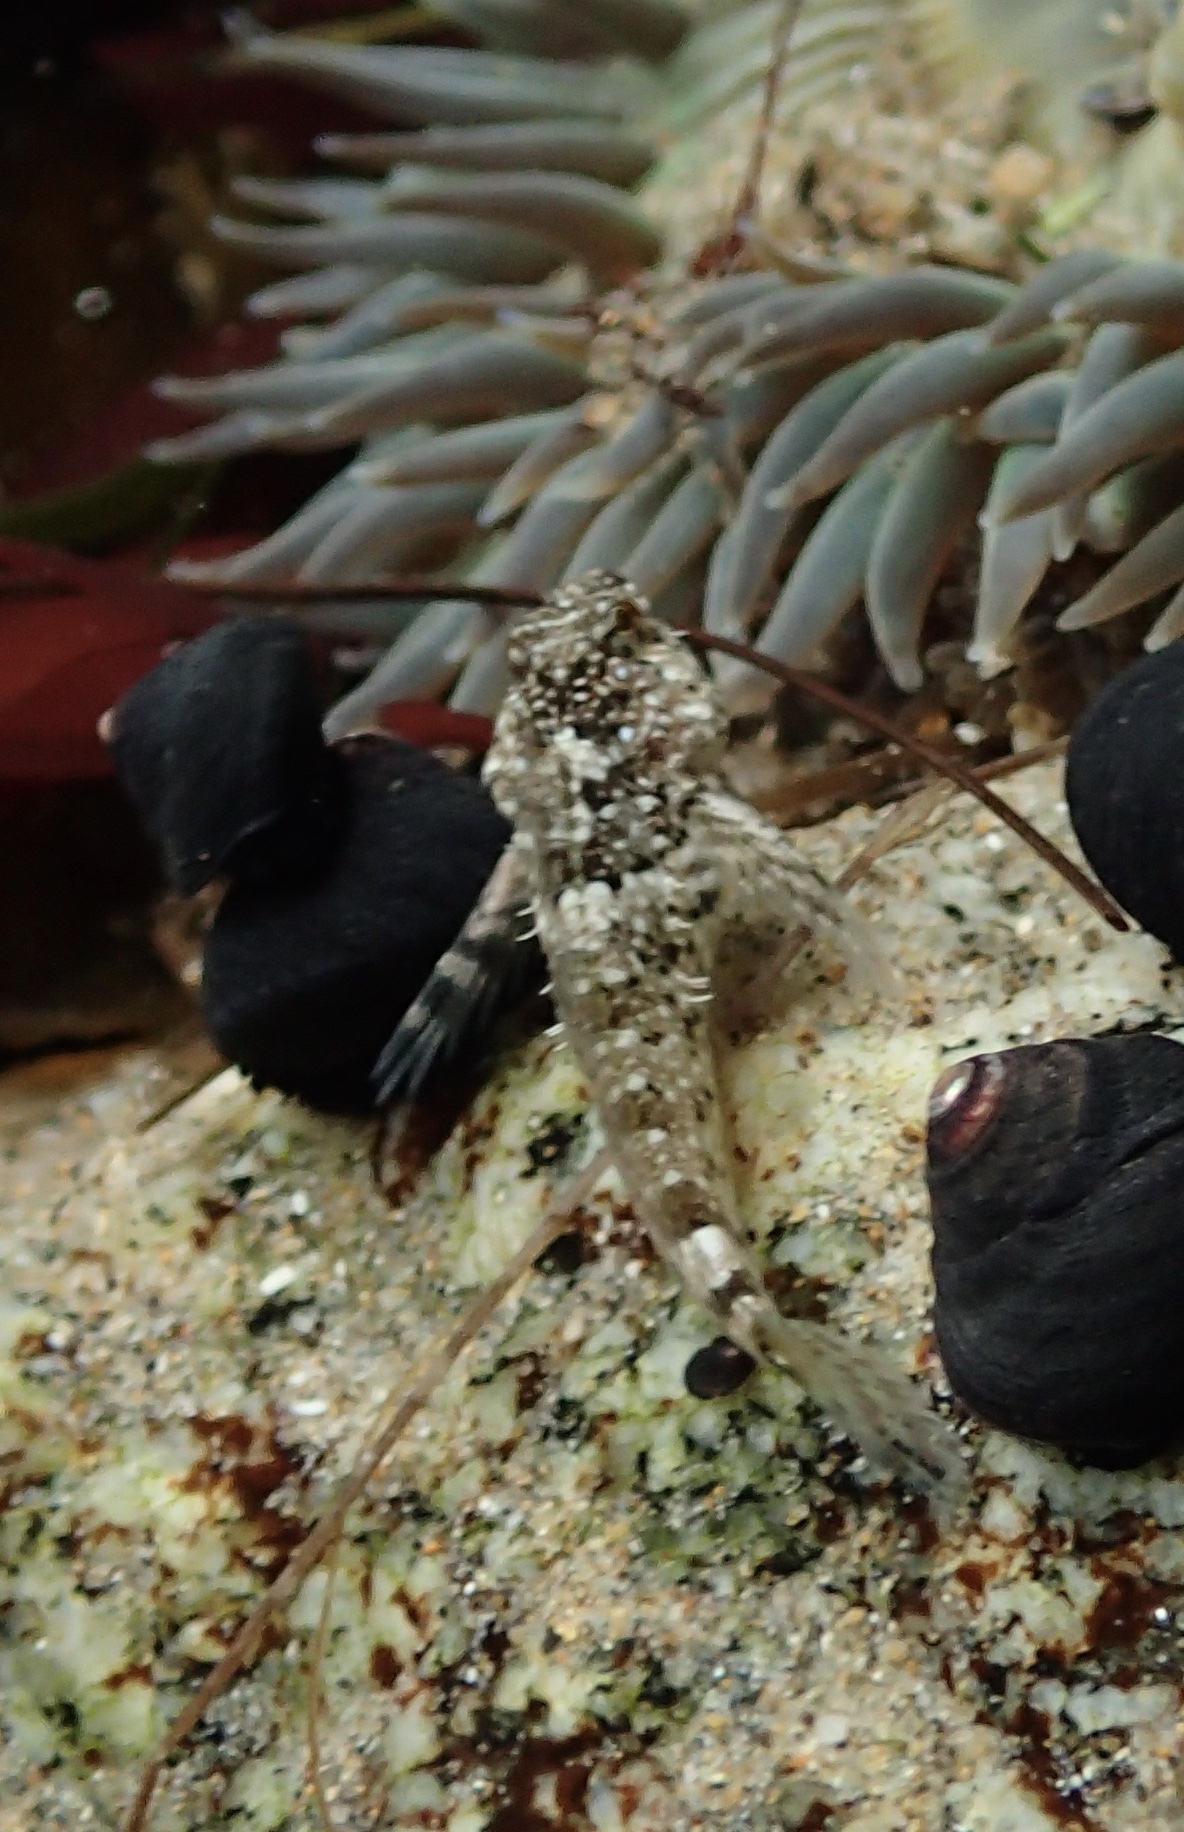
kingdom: Animalia
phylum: Chordata
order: Scorpaeniformes
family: Cottidae
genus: Clinocottus
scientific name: Clinocottus analis
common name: Woolly sculpin
